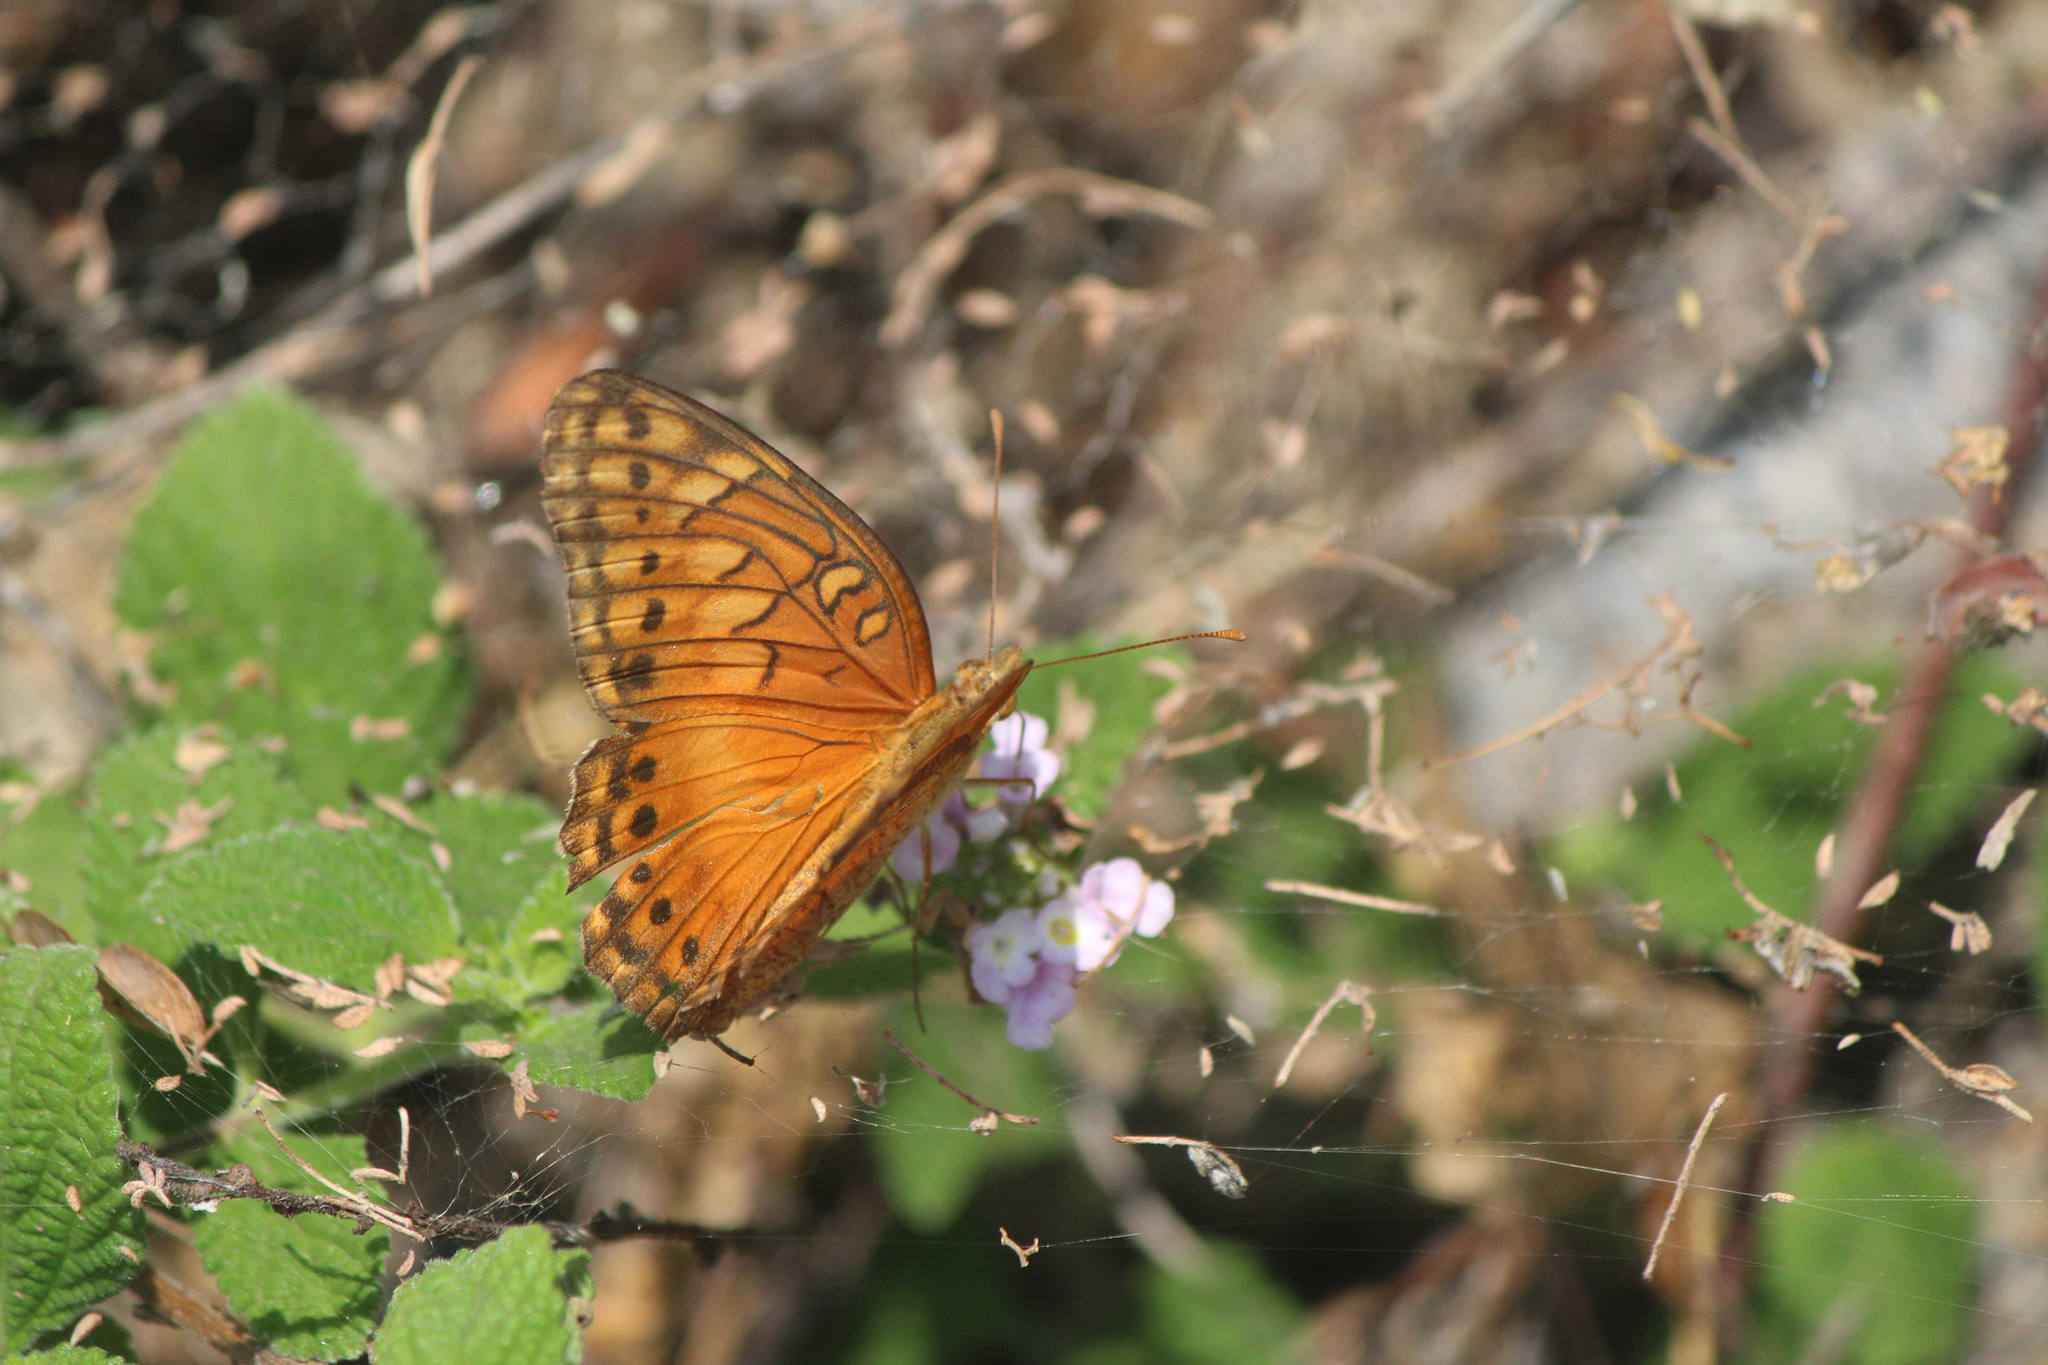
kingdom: Animalia
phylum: Arthropoda
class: Insecta
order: Lepidoptera
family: Nymphalidae
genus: Euptoieta
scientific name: Euptoieta hegesia
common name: Mexican fritillary
